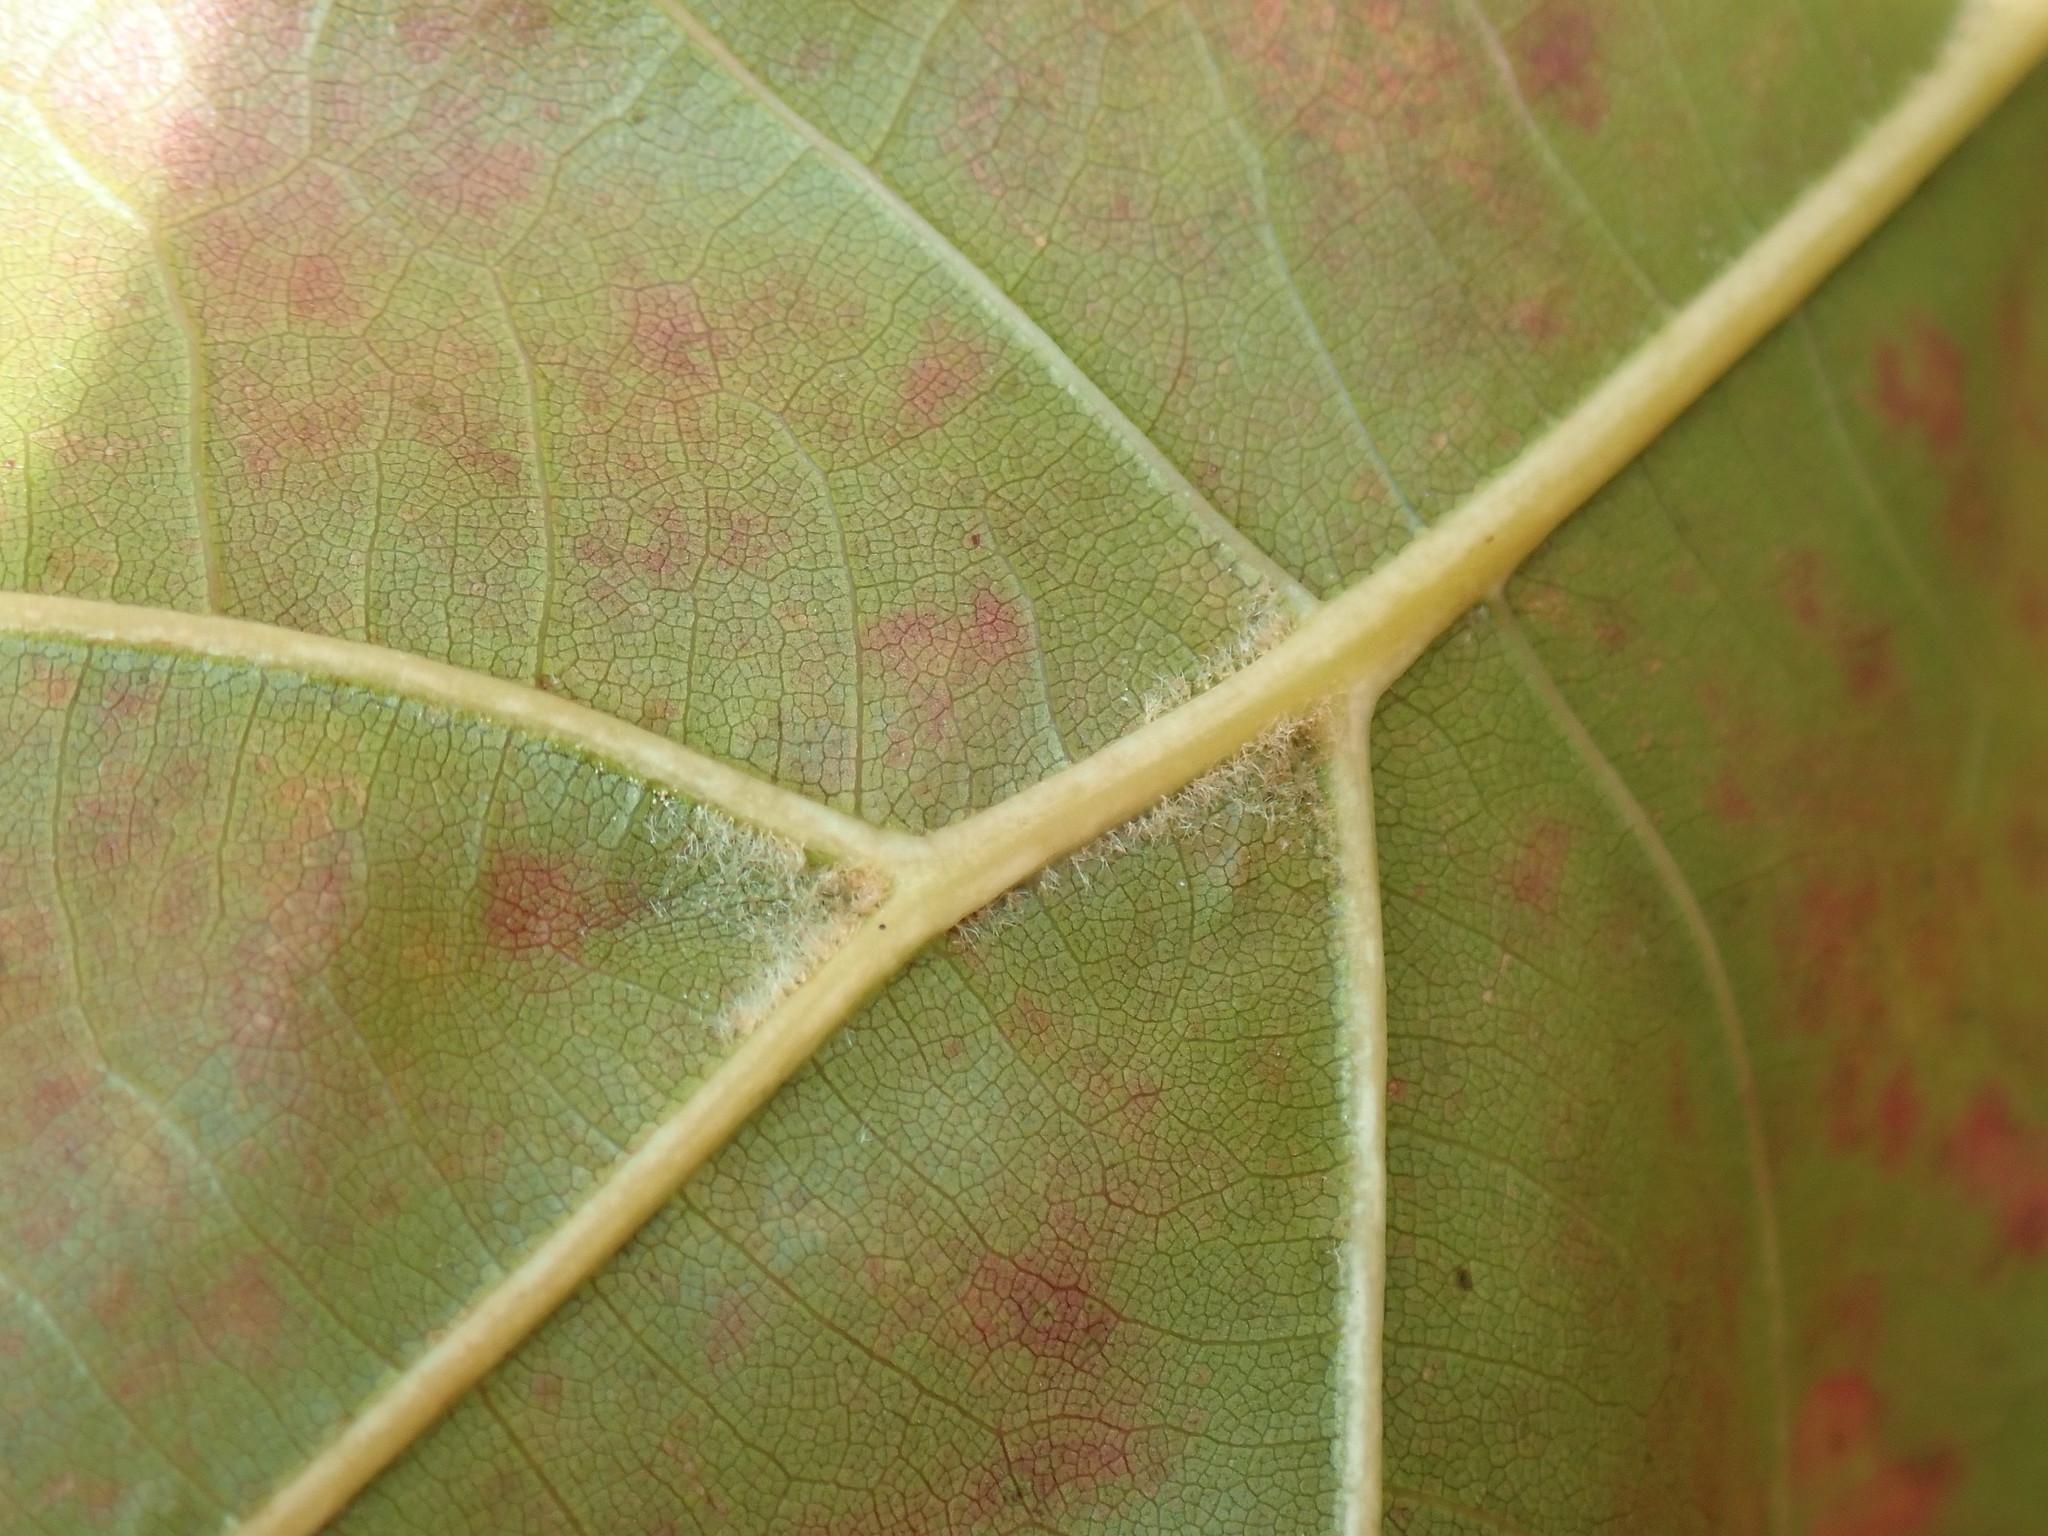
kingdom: Plantae
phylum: Tracheophyta
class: Magnoliopsida
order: Fagales
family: Fagaceae
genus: Quercus
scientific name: Quercus velutina
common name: Black oak
